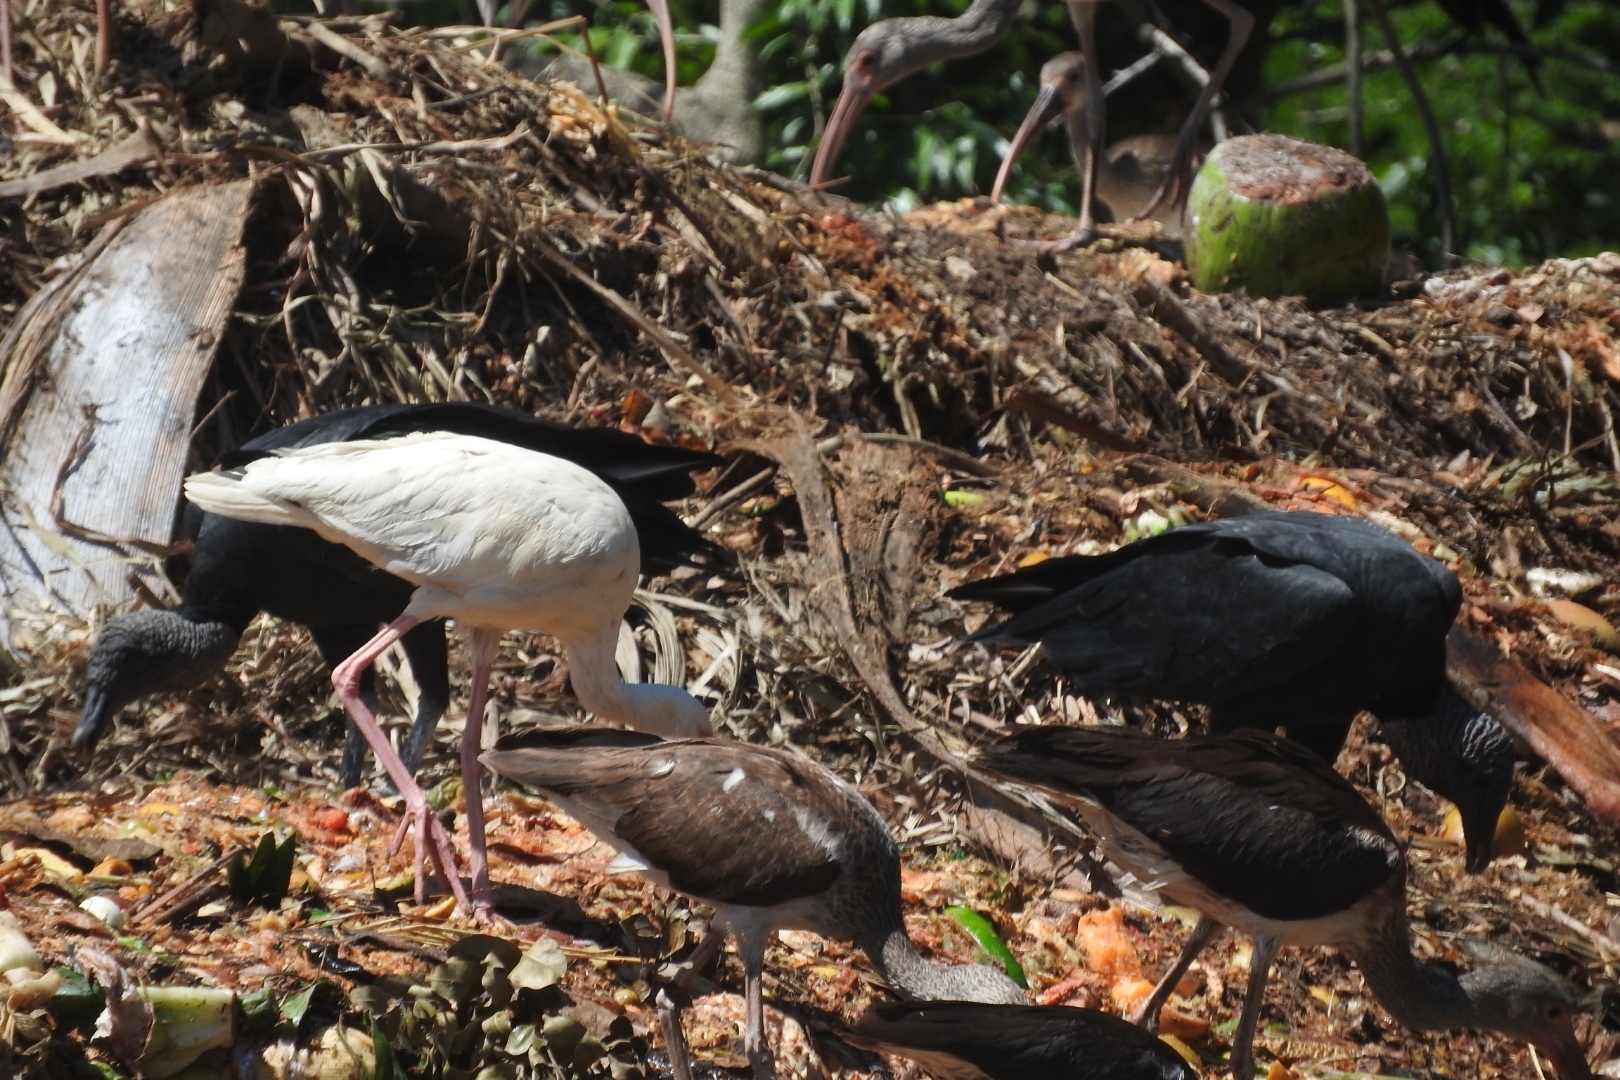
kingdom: Animalia
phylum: Chordata
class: Aves
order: Accipitriformes
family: Cathartidae
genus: Coragyps
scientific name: Coragyps atratus
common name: Black vulture
